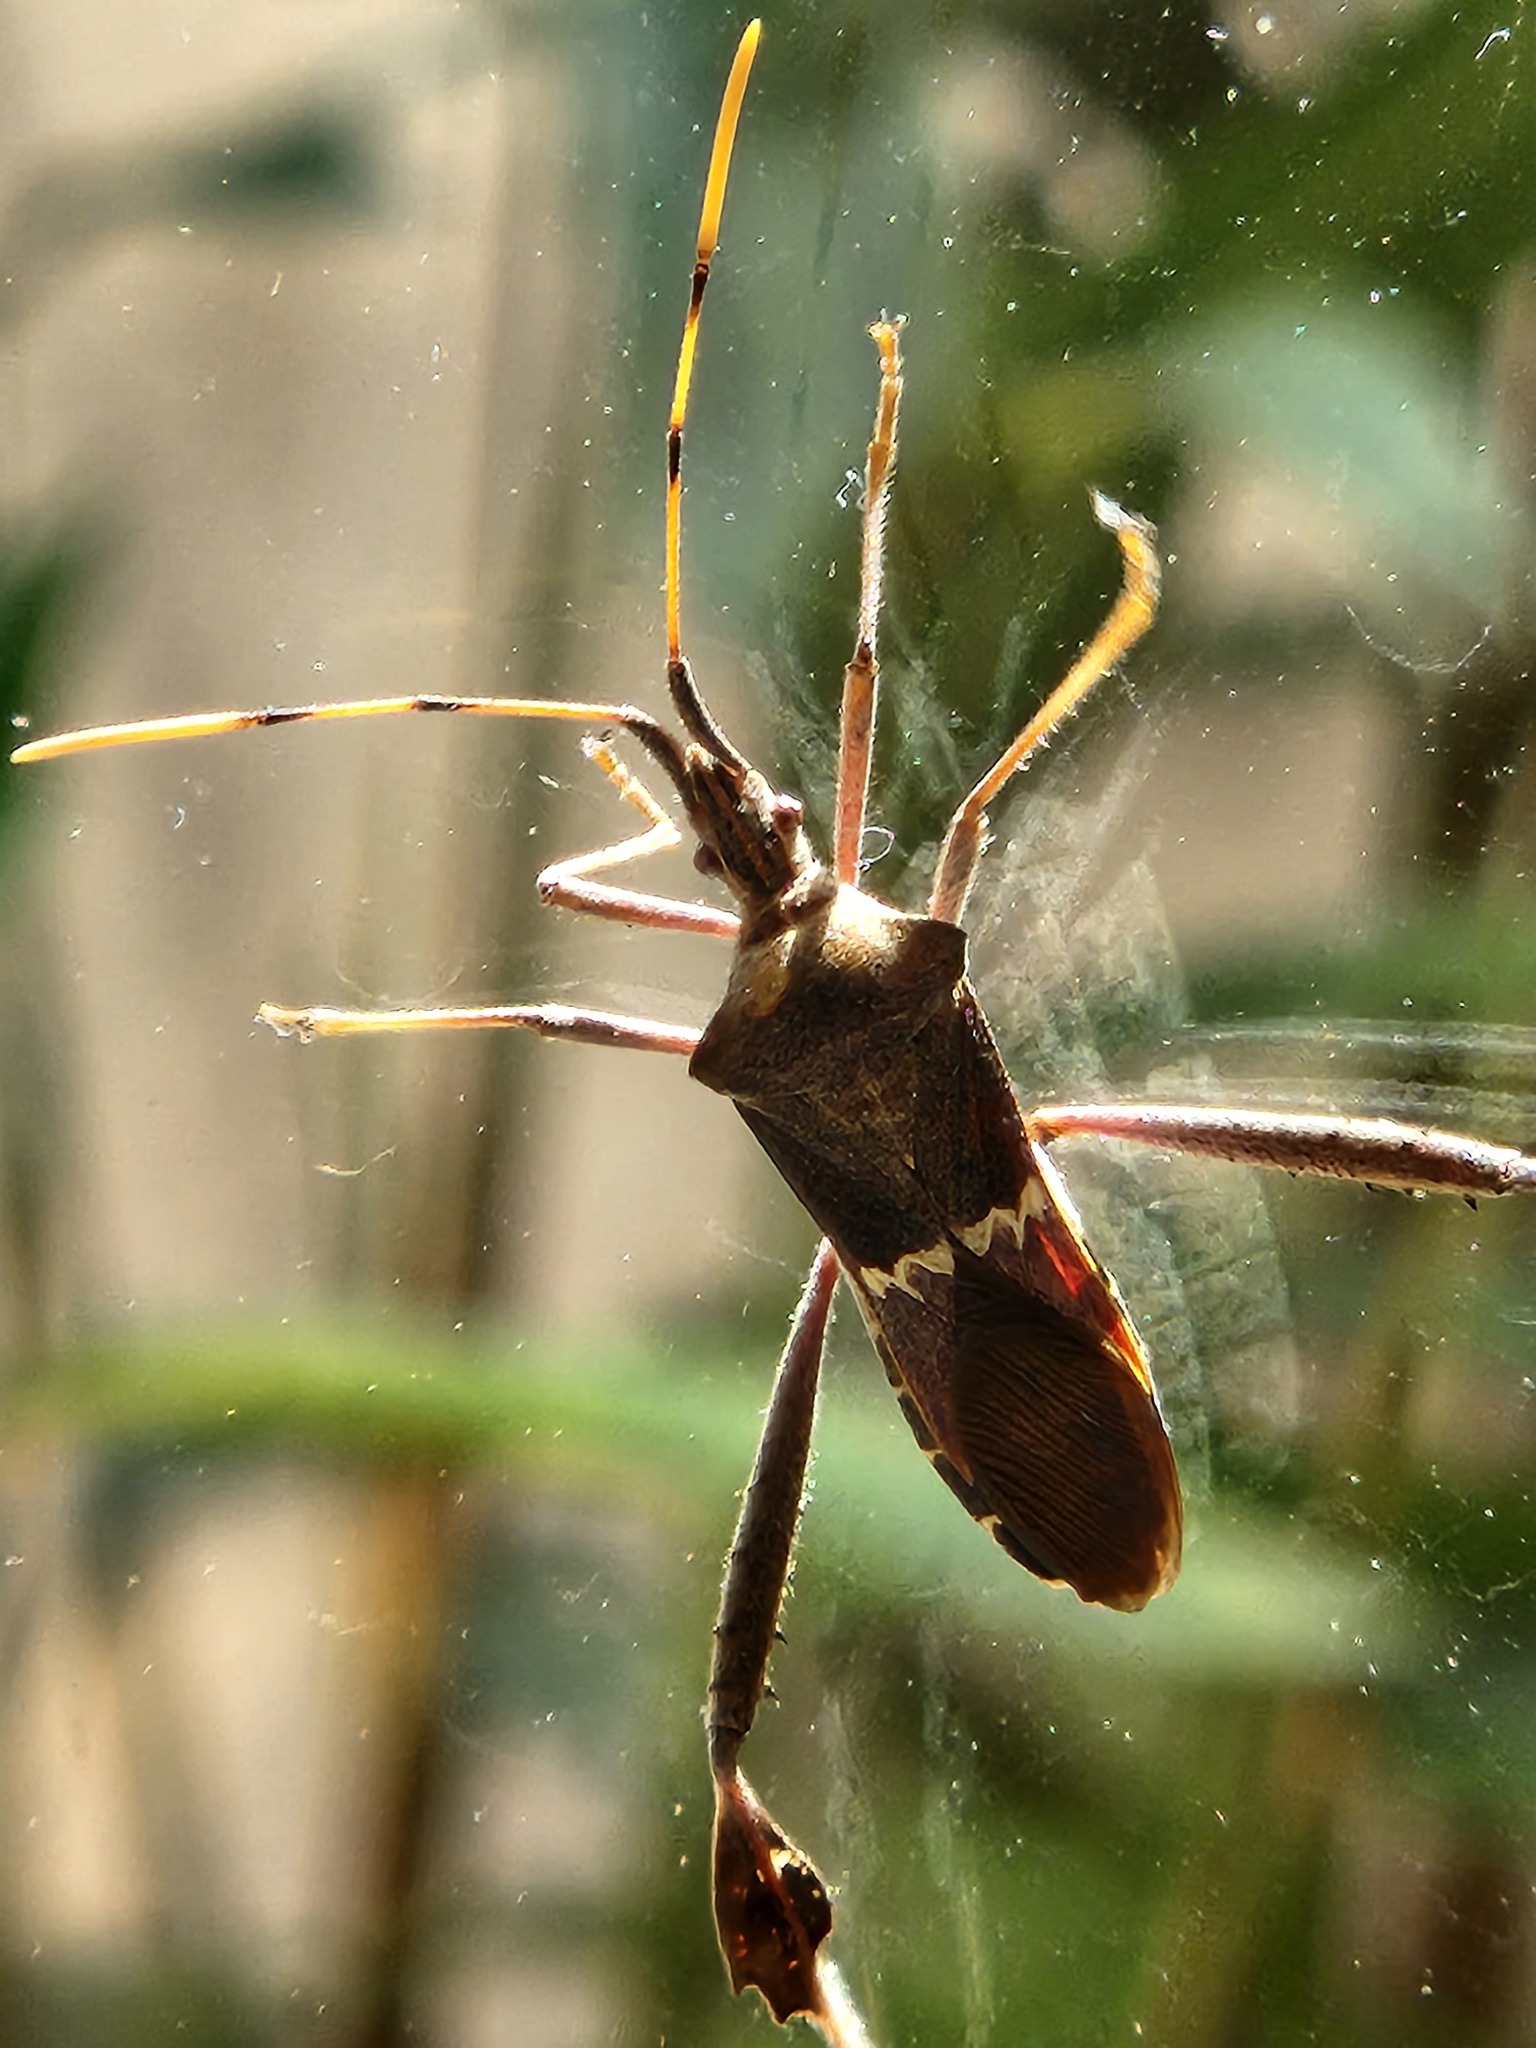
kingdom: Animalia
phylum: Arthropoda
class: Insecta
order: Hemiptera
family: Coreidae
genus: Leptoglossus
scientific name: Leptoglossus zonatus
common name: Large-legged bug
